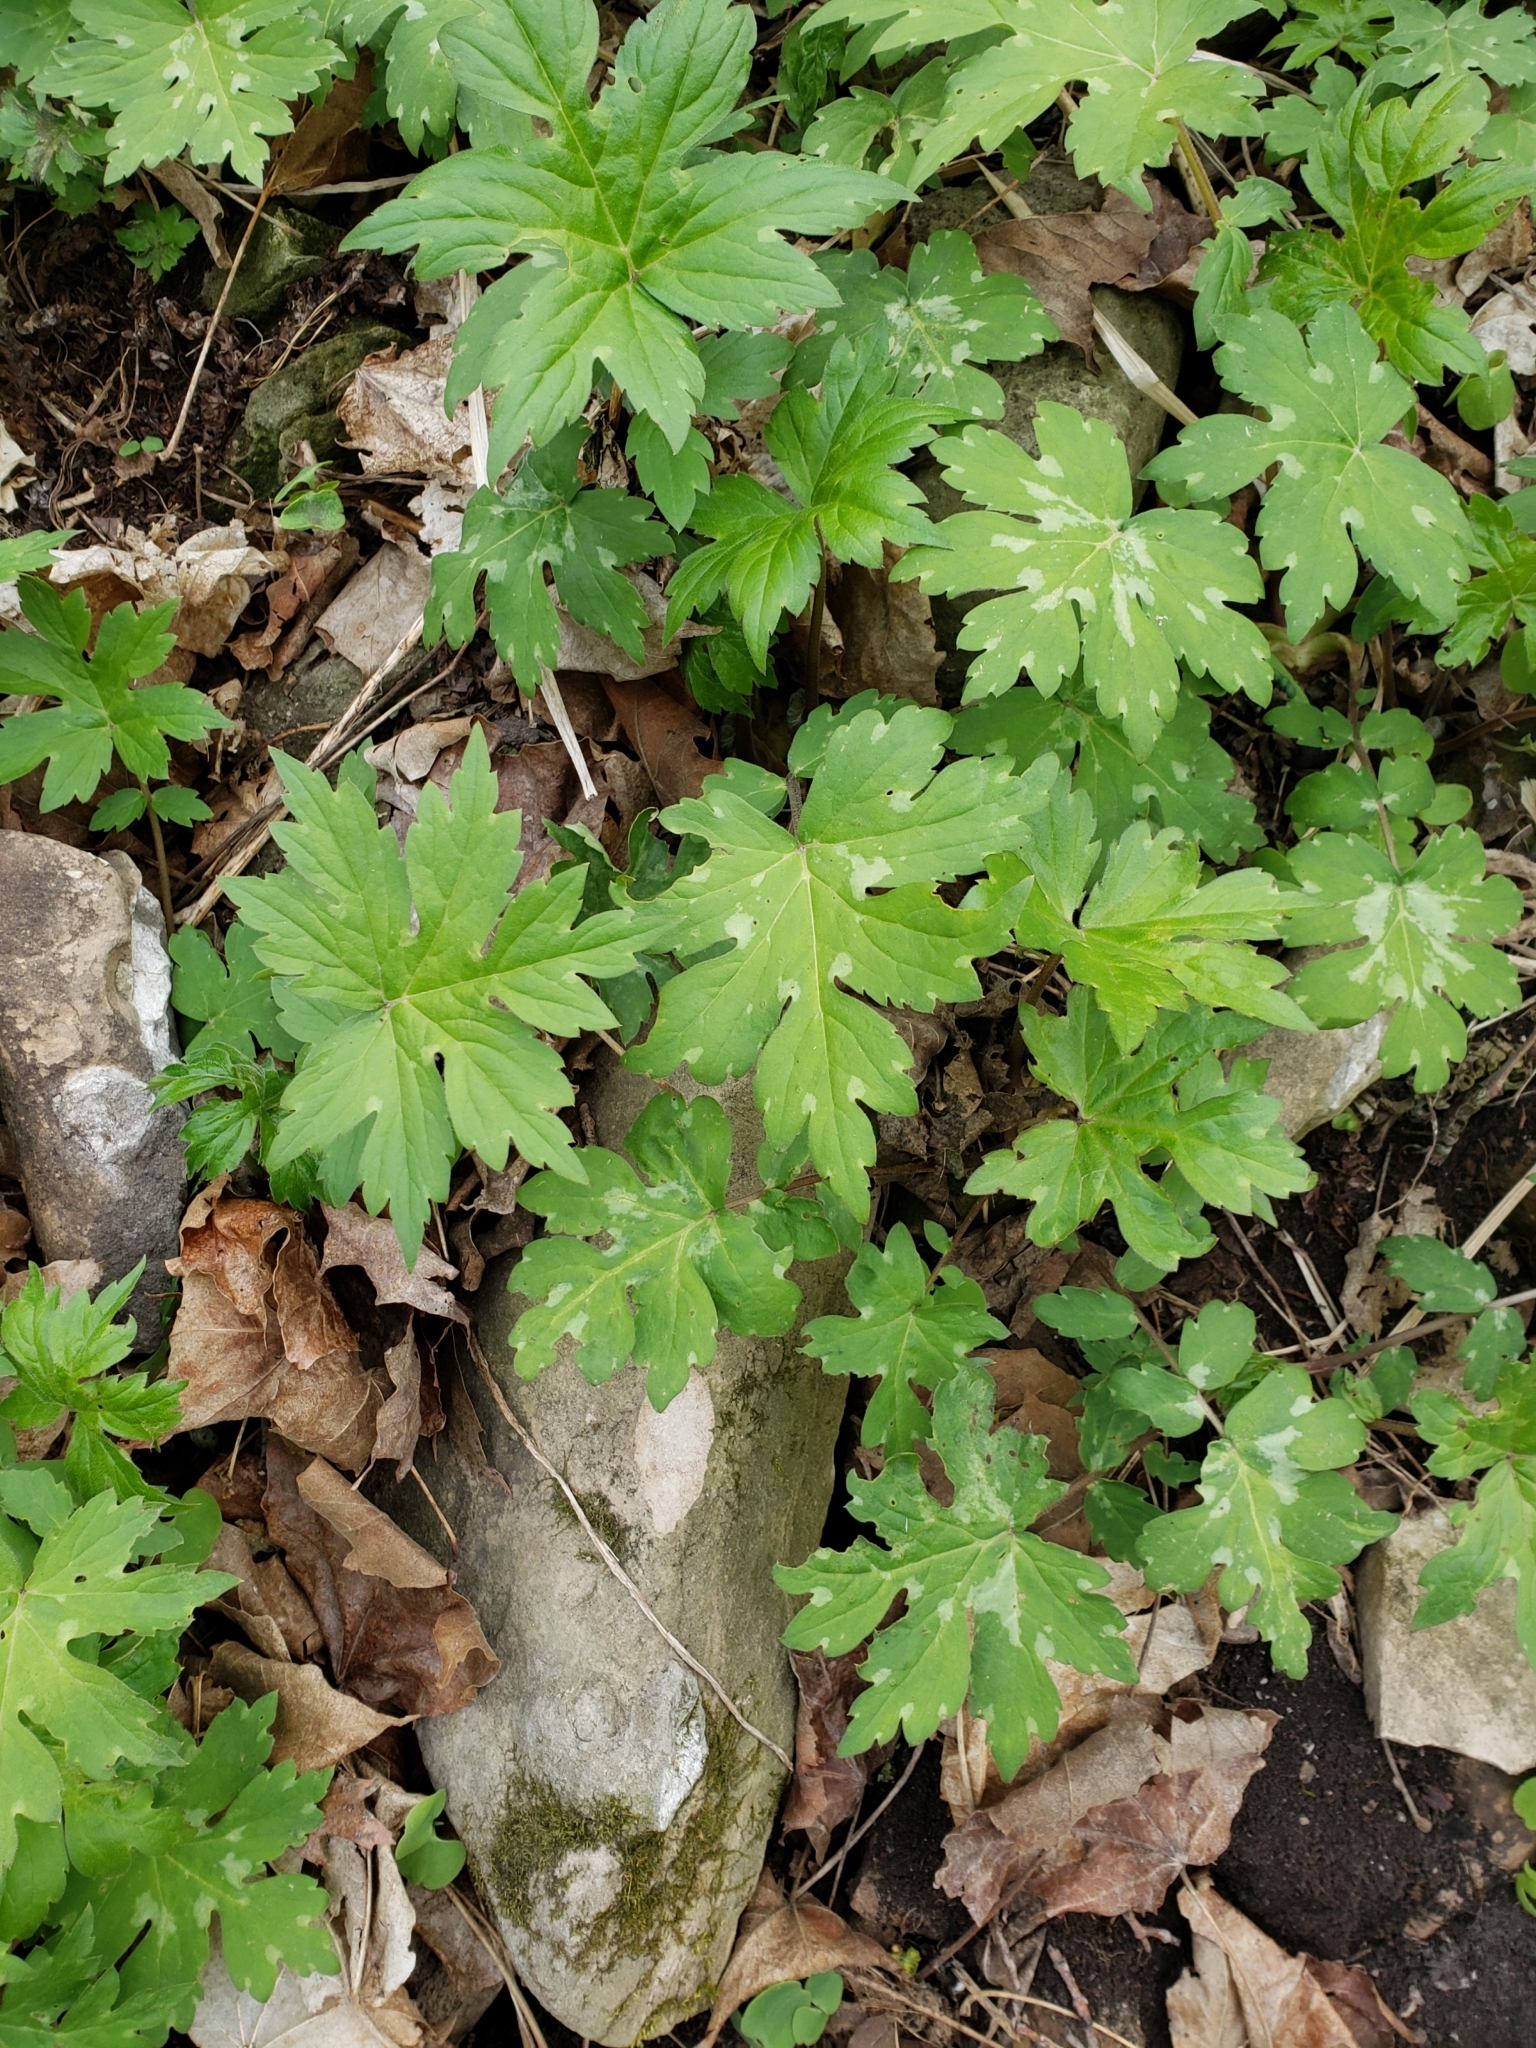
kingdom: Plantae
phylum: Tracheophyta
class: Magnoliopsida
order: Boraginales
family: Hydrophyllaceae
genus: Hydrophyllum
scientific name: Hydrophyllum canadense
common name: Canada waterleaf
